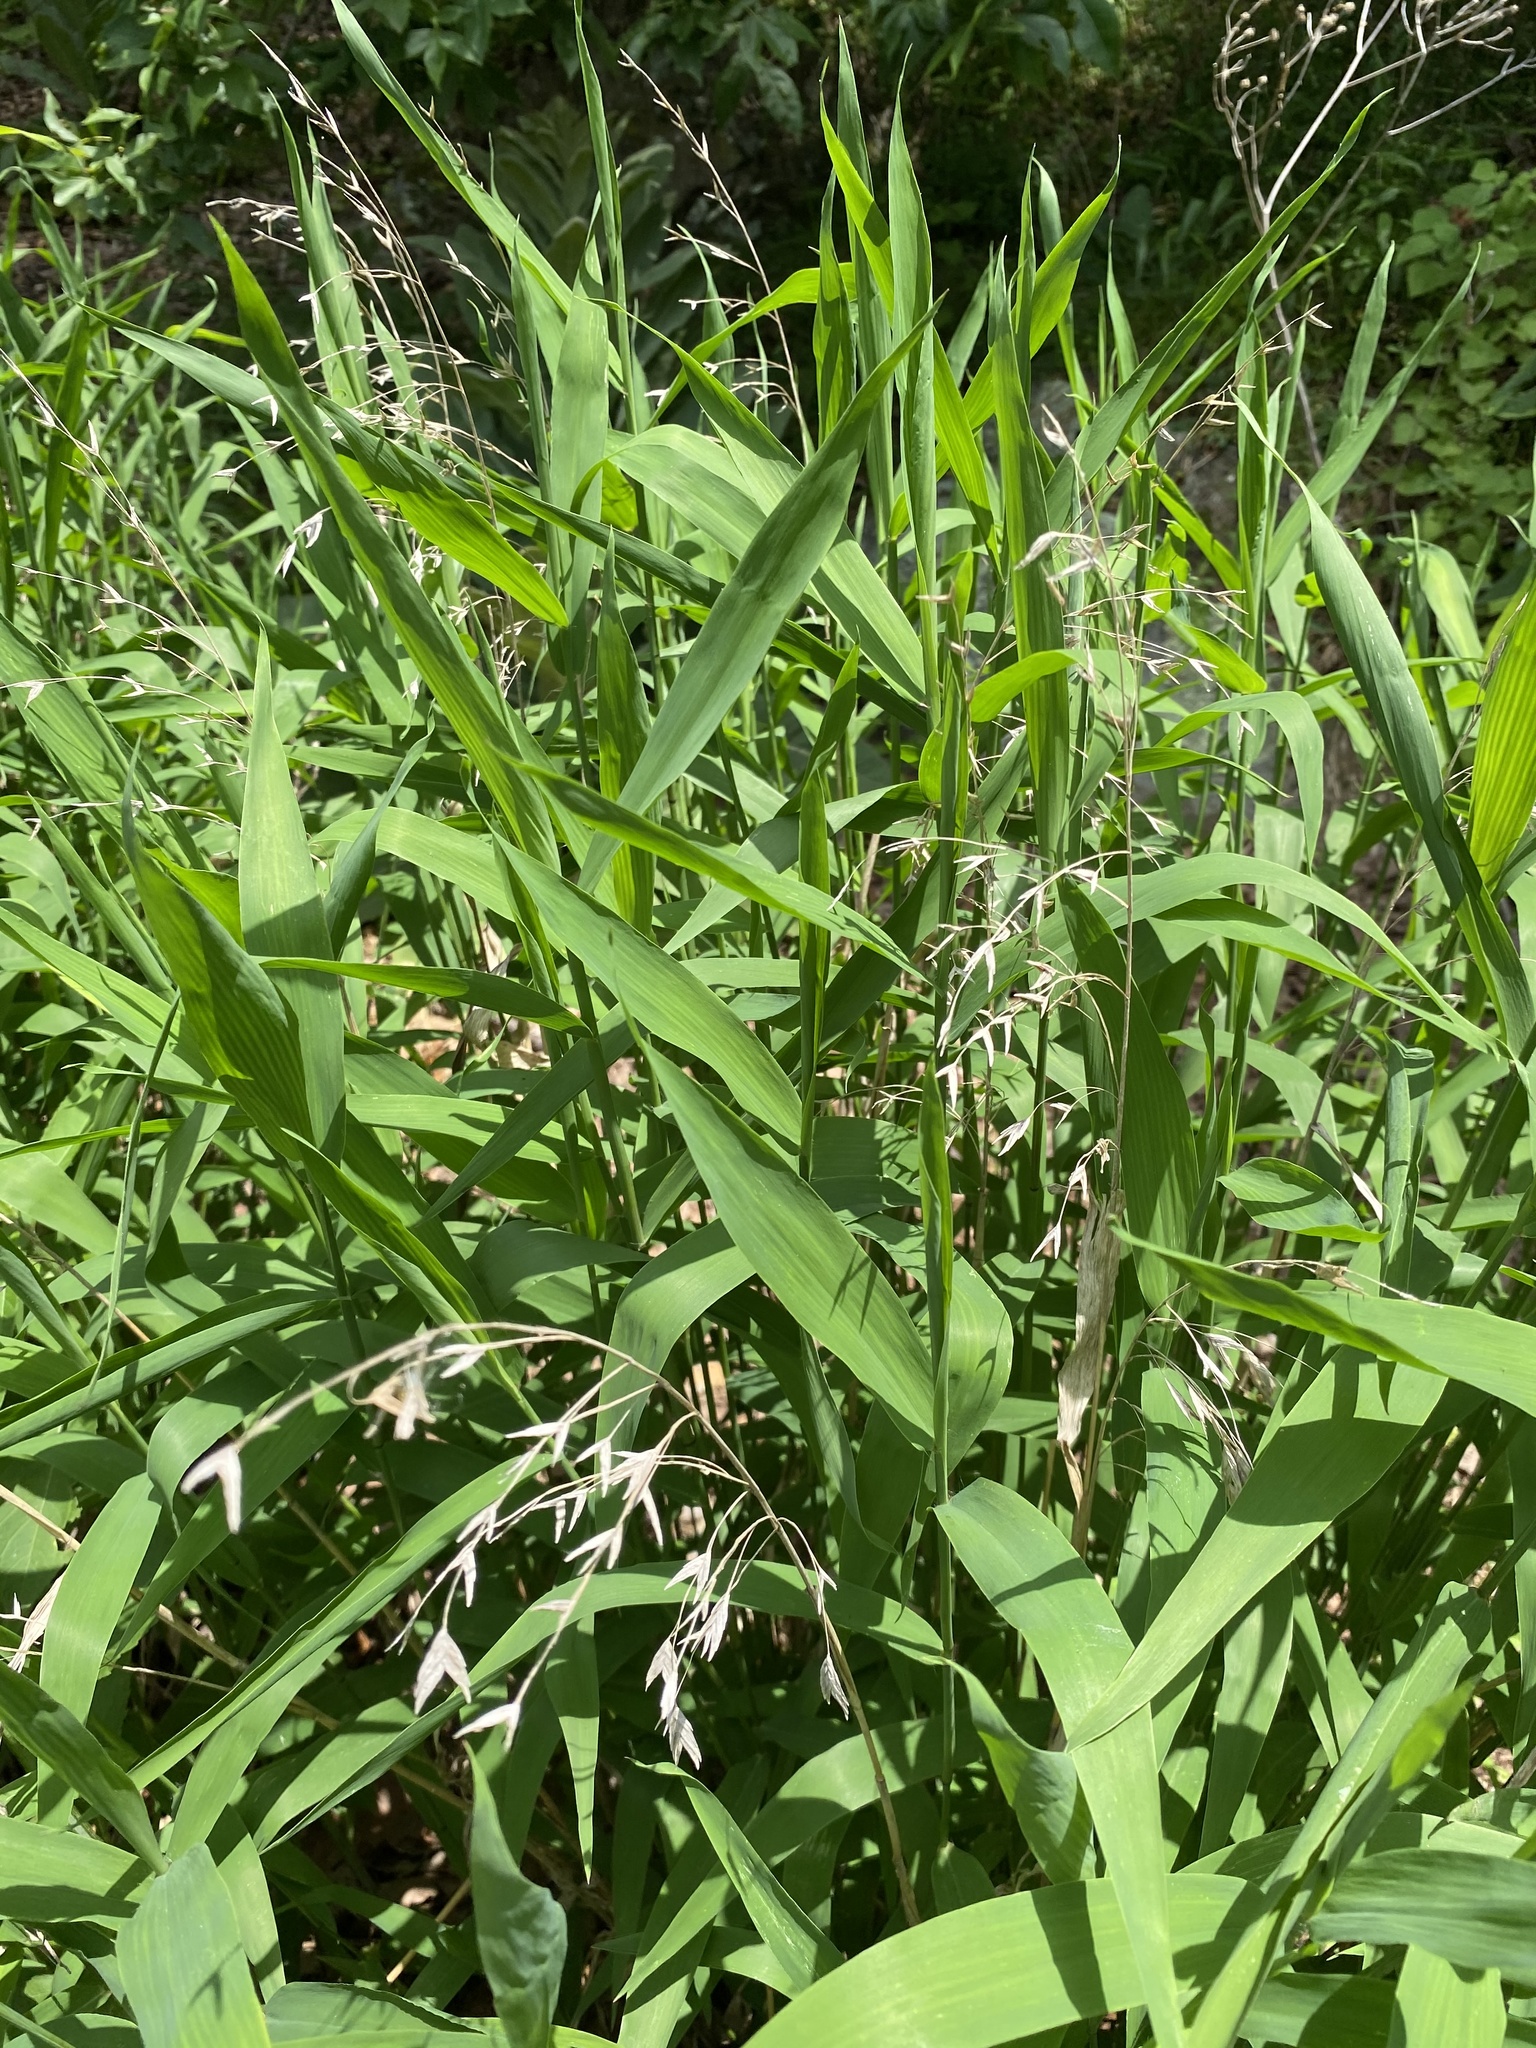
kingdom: Plantae
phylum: Tracheophyta
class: Liliopsida
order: Poales
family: Poaceae
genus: Chasmanthium
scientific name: Chasmanthium latifolium
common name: Broad-leaved chasmanthium
